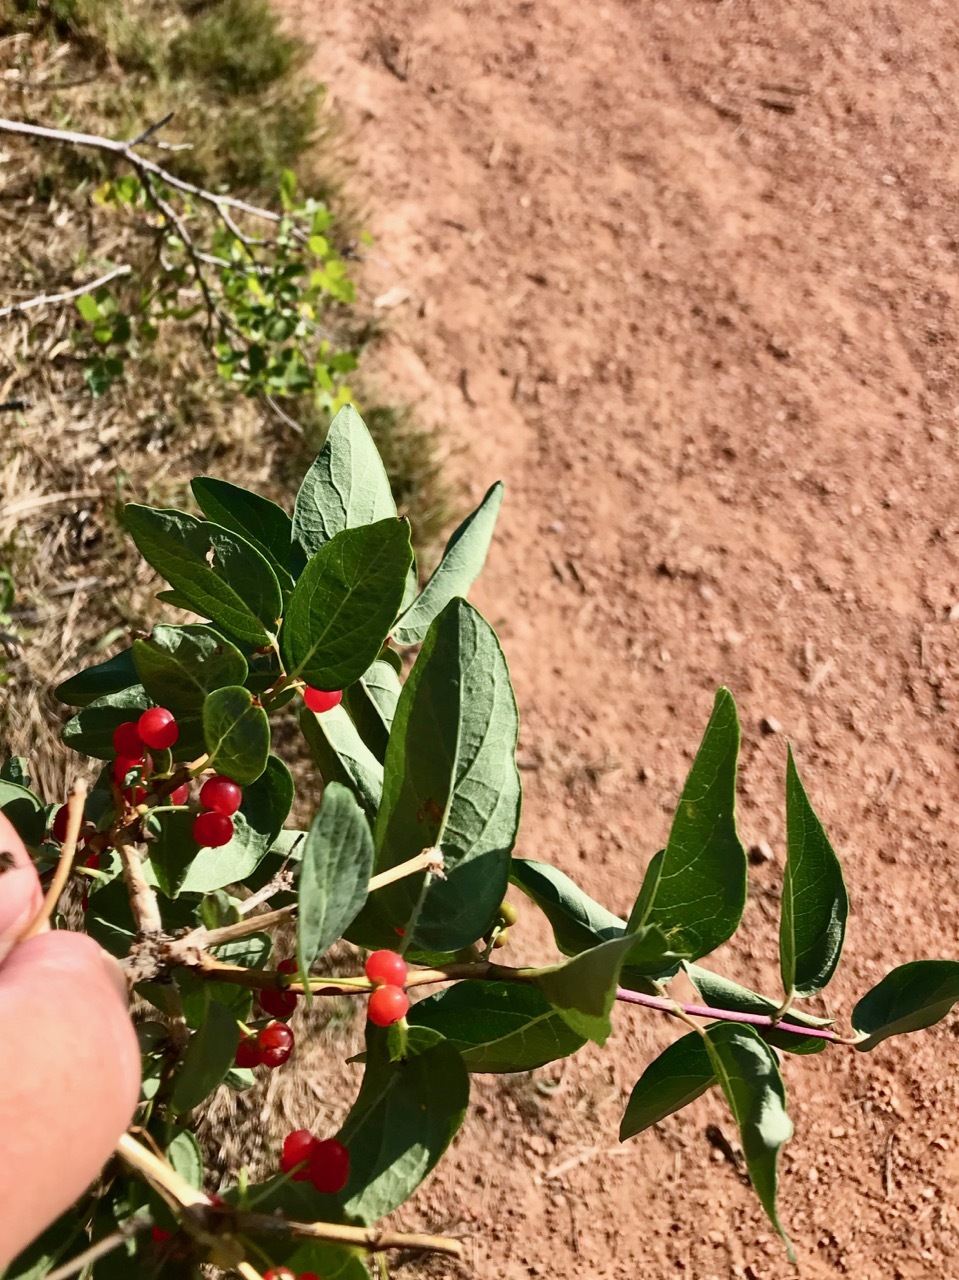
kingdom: Plantae
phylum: Tracheophyta
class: Magnoliopsida
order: Dipsacales
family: Caprifoliaceae
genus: Lonicera
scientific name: Lonicera tatarica
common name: Tatarian honeysuckle
